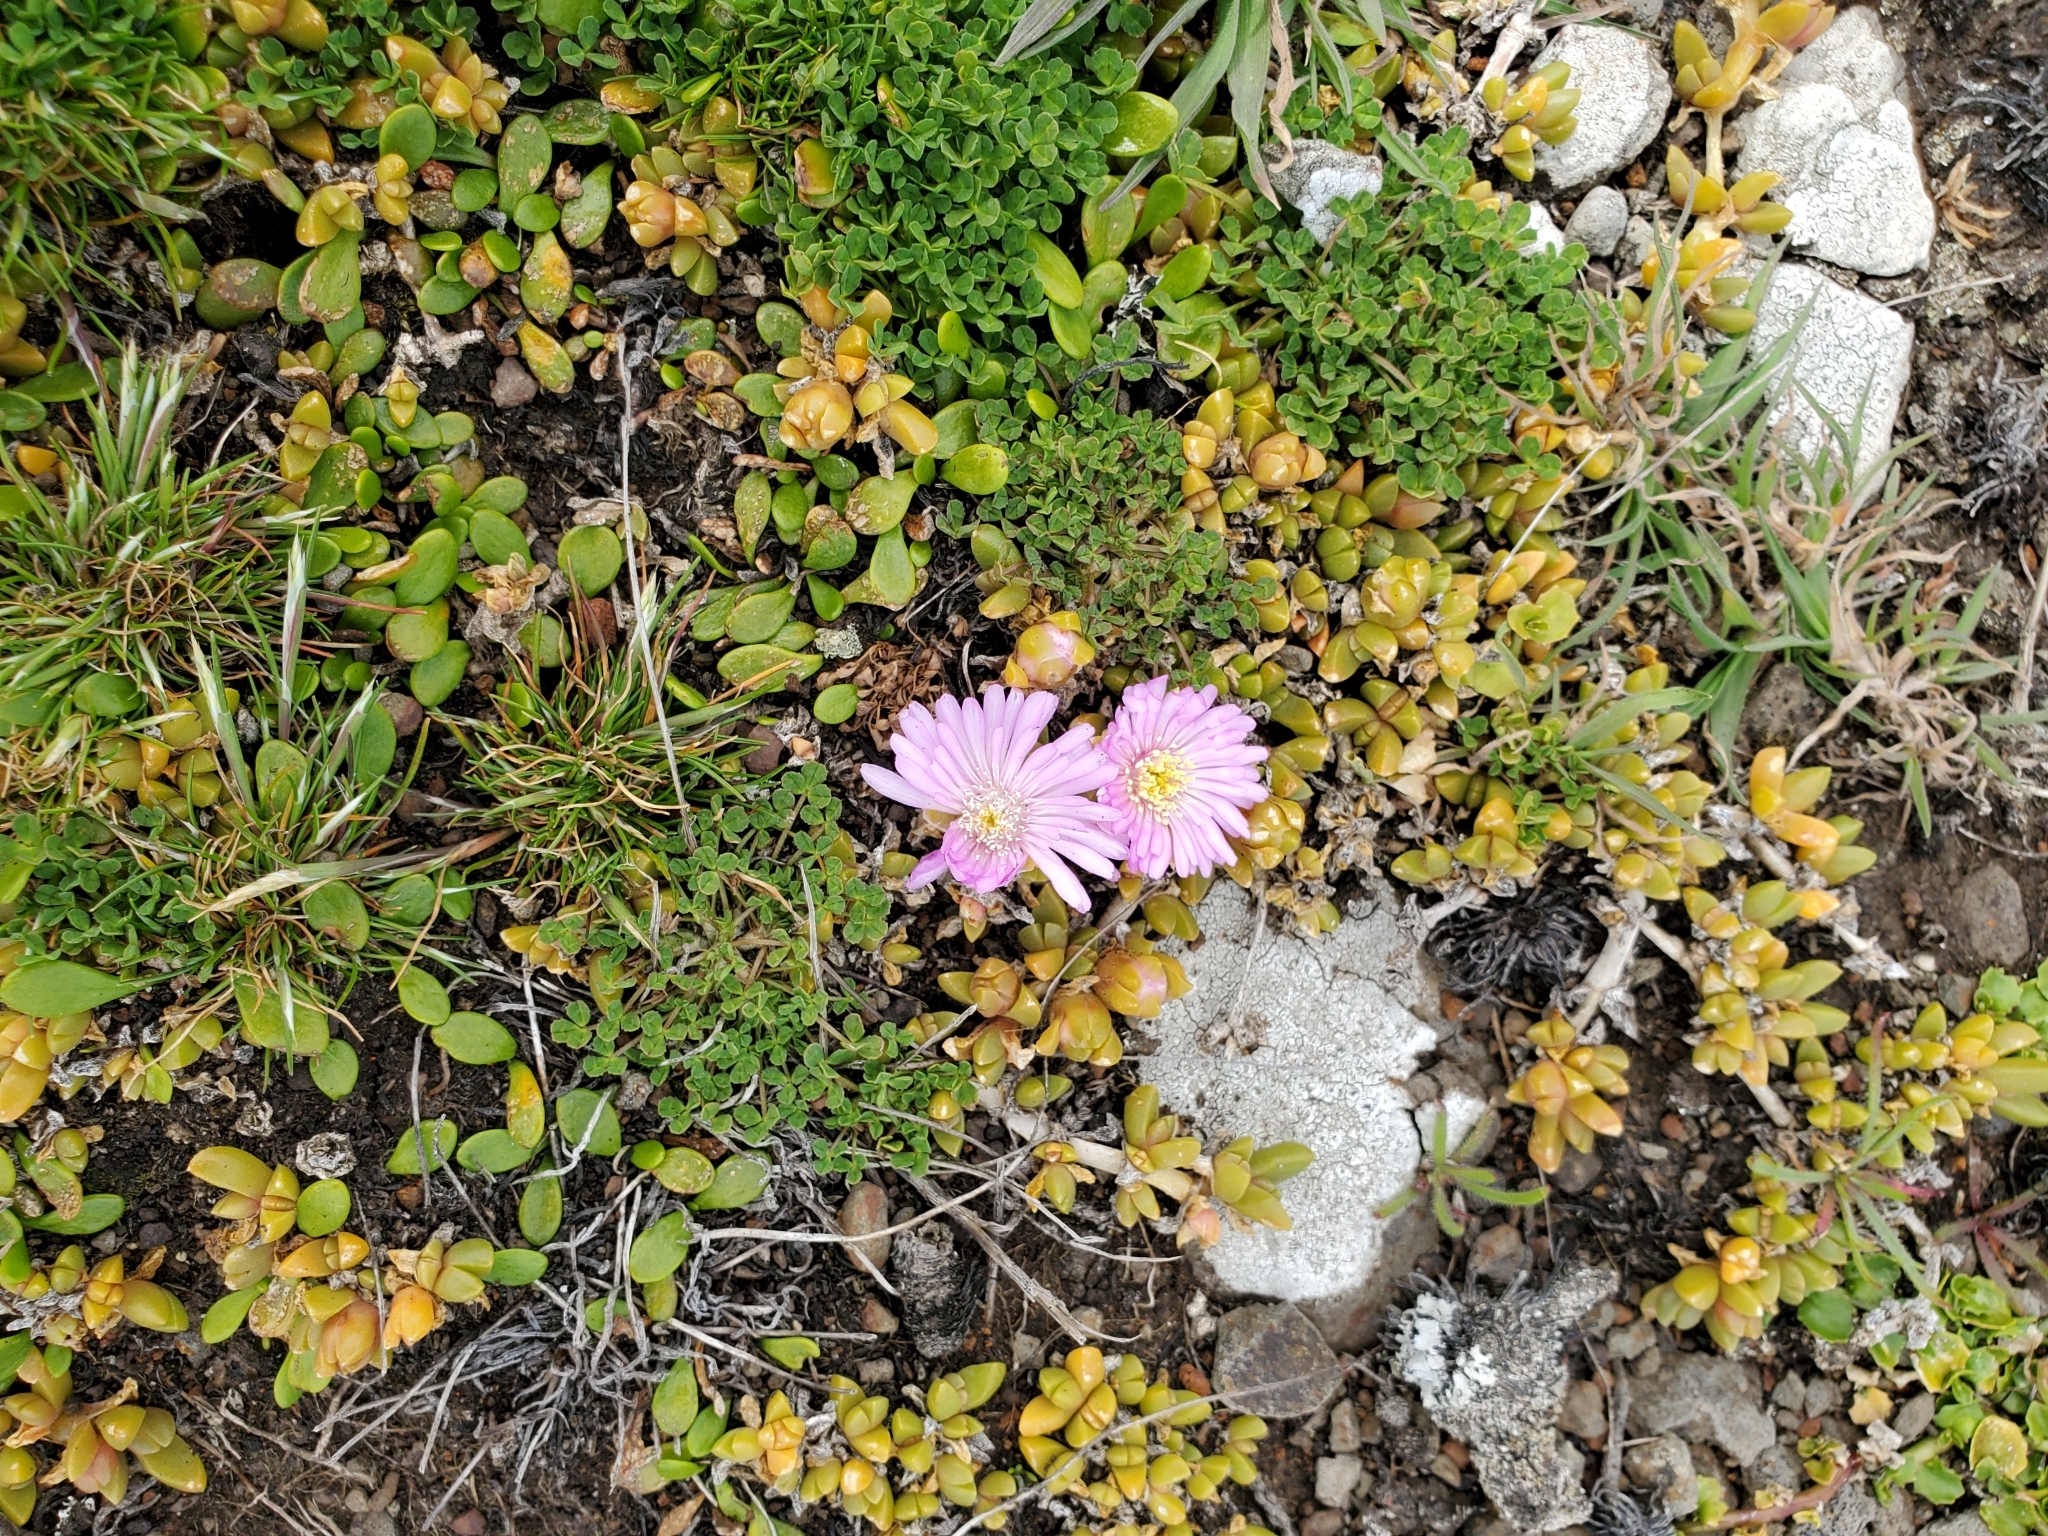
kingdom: Plantae
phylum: Tracheophyta
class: Magnoliopsida
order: Caryophyllales
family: Aizoaceae
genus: Disphyma
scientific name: Disphyma australe
